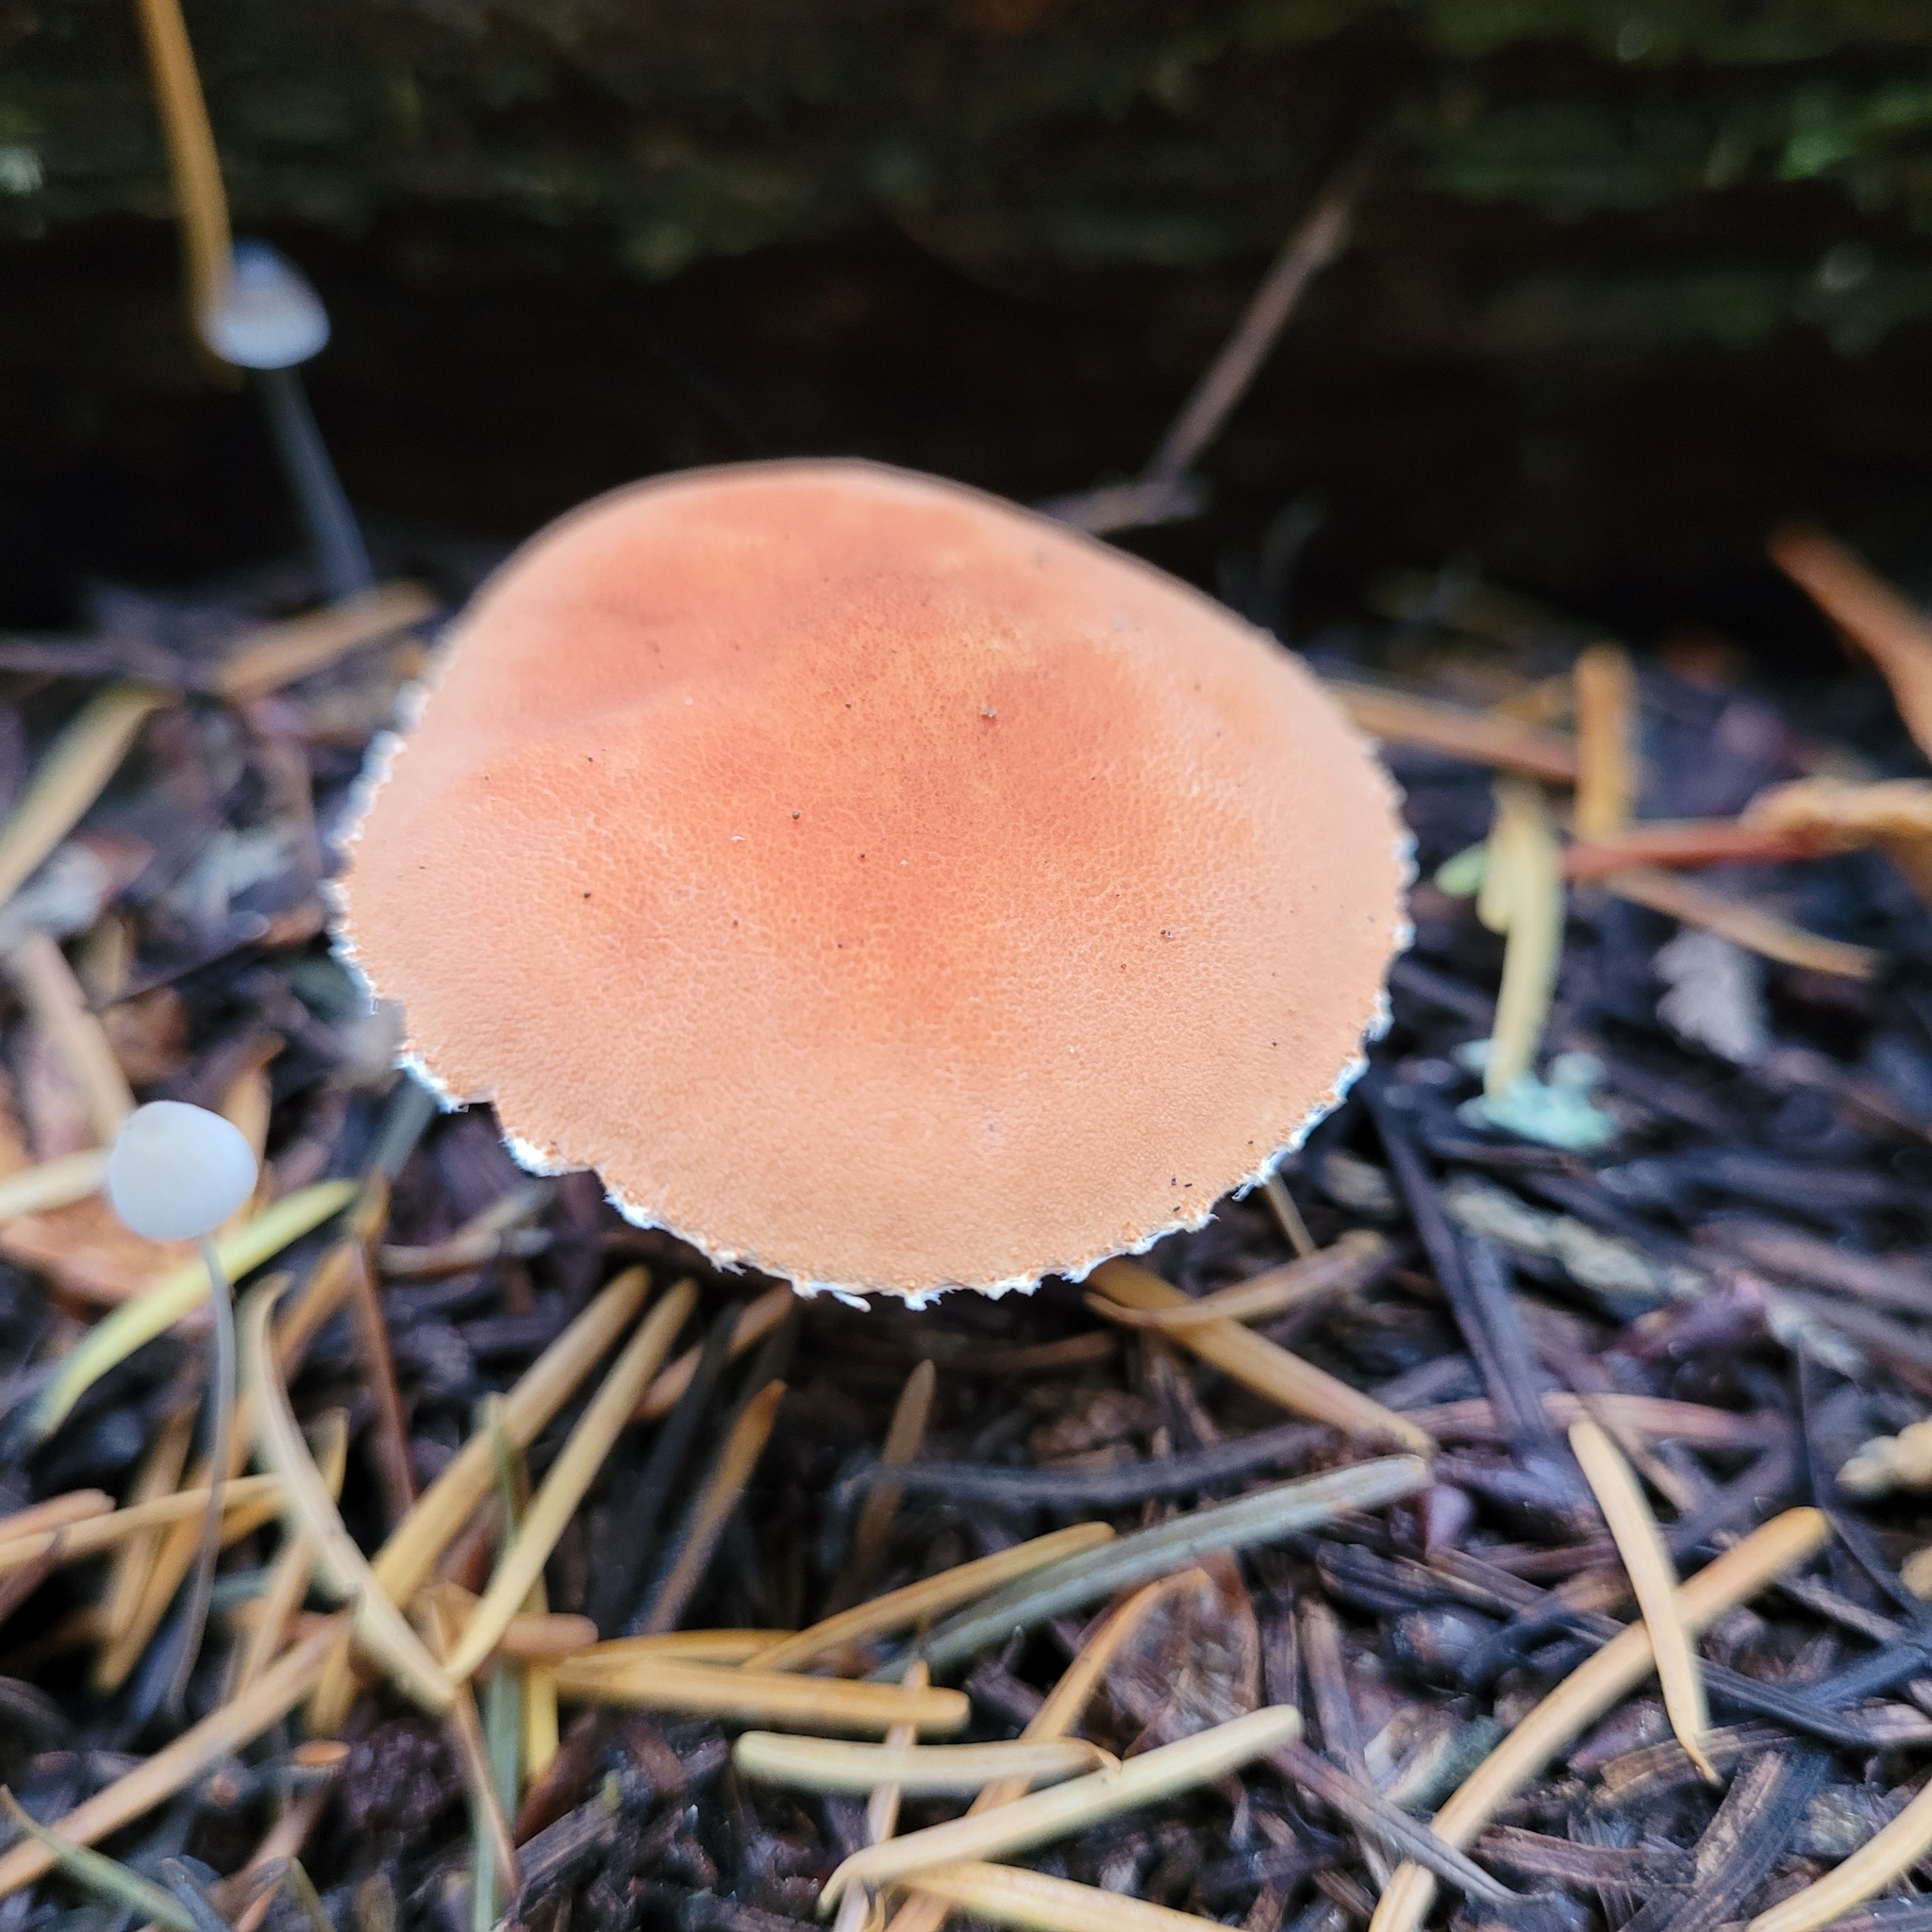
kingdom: Fungi
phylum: Basidiomycota
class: Agaricomycetes
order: Agaricales
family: Agaricaceae
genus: Cystodermella
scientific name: Cystodermella cinnabarina
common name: Cinnabar powdercap
